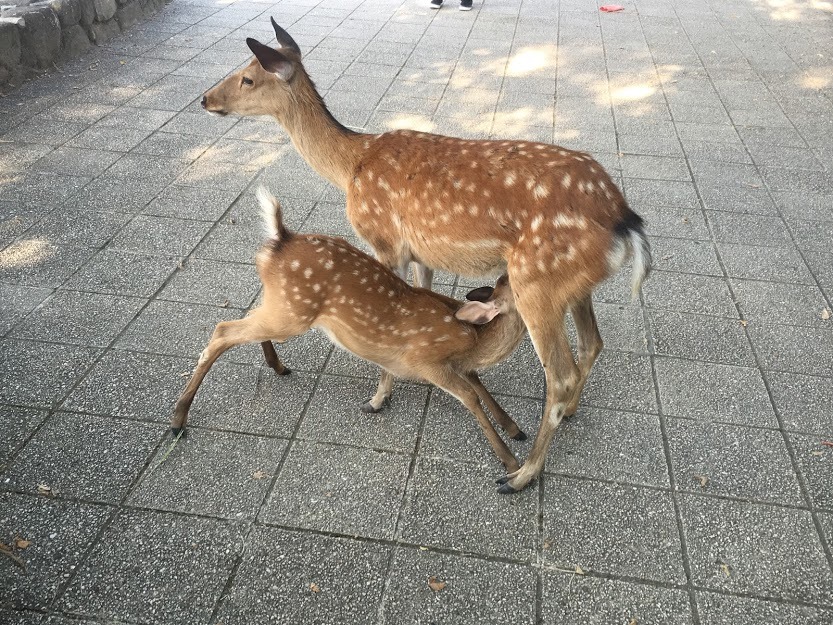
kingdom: Animalia
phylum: Chordata
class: Mammalia
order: Artiodactyla
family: Cervidae
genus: Cervus
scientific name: Cervus nippon
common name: Sika deer
